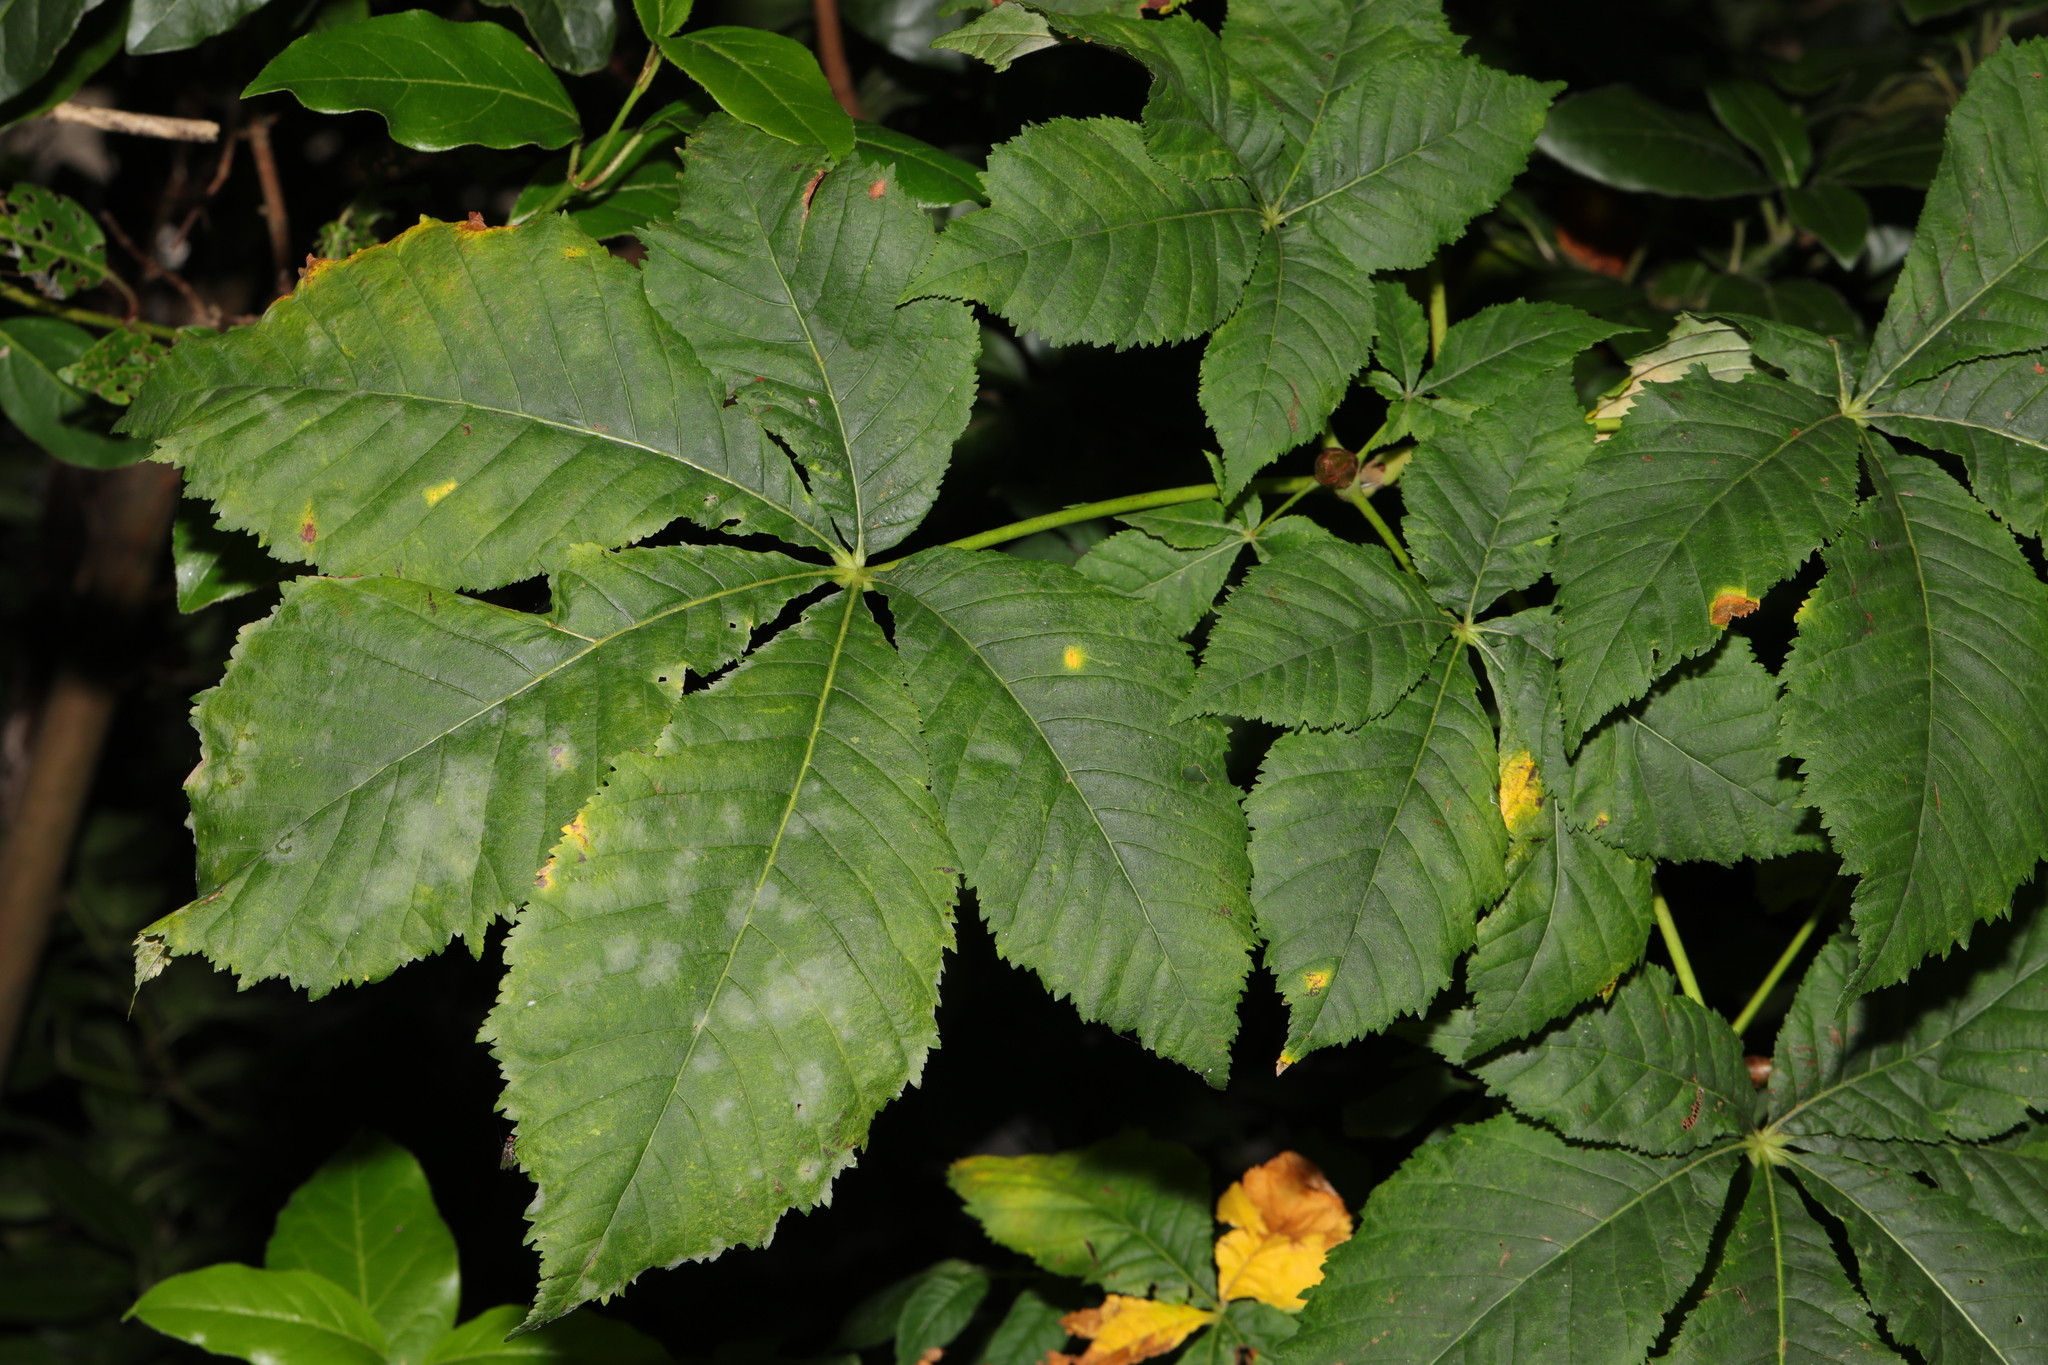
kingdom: Plantae
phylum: Tracheophyta
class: Magnoliopsida
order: Sapindales
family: Sapindaceae
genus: Aesculus
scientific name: Aesculus hippocastanum
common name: Horse-chestnut
